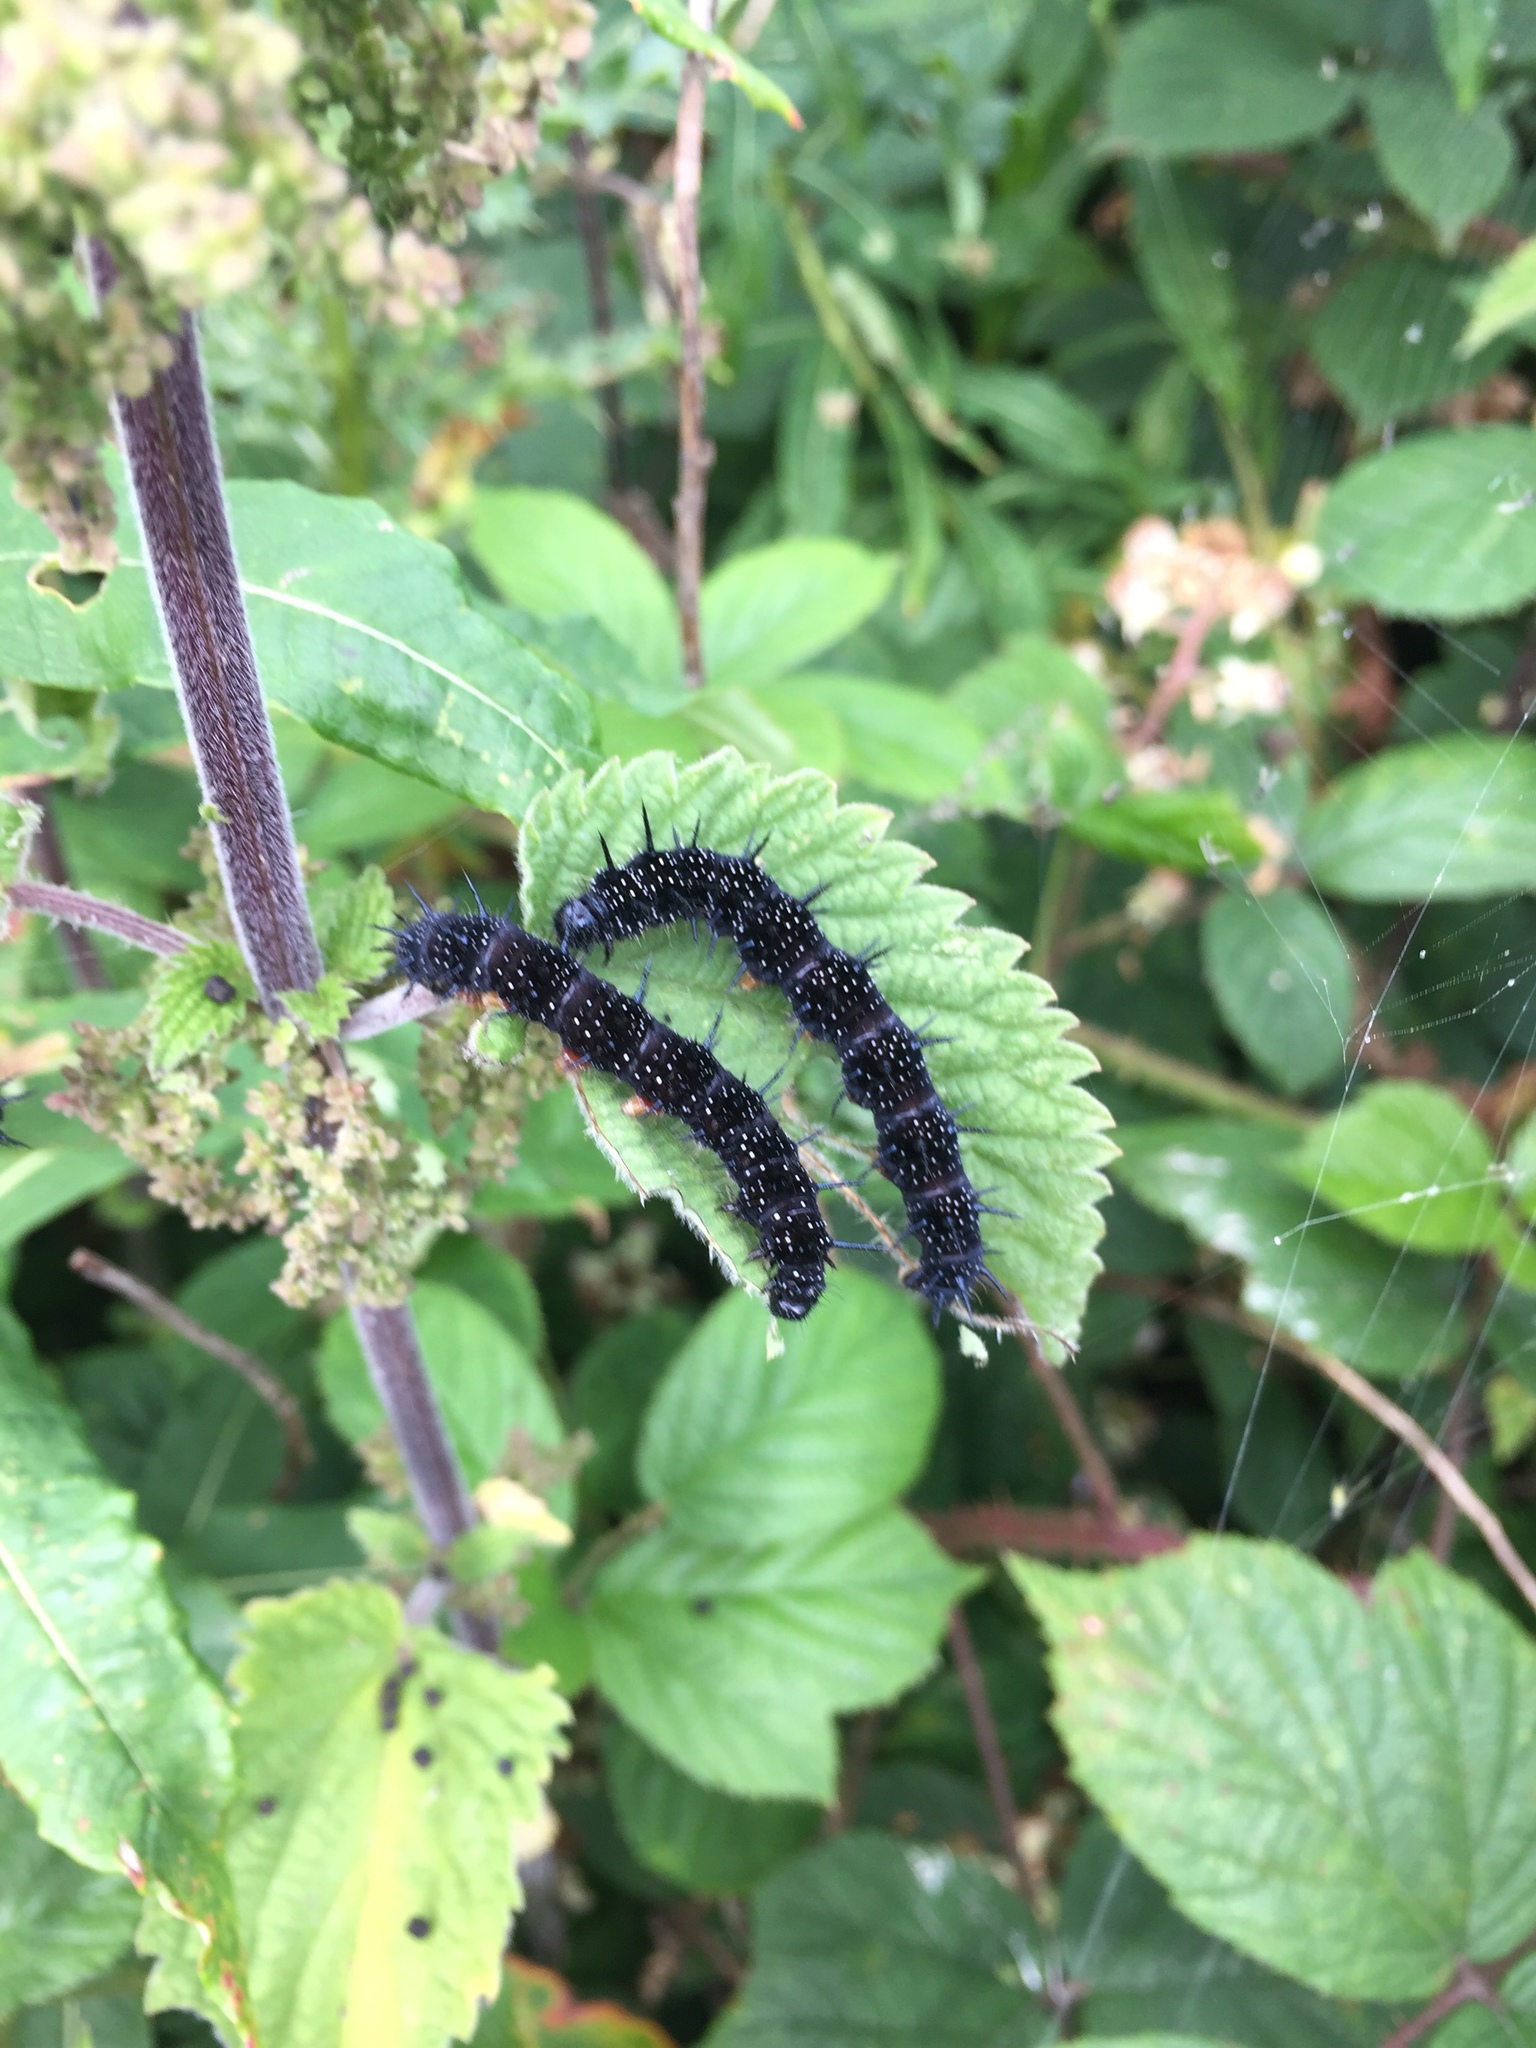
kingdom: Animalia
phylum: Arthropoda
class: Insecta
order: Lepidoptera
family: Nymphalidae
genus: Aglais
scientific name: Aglais io
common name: Peacock
